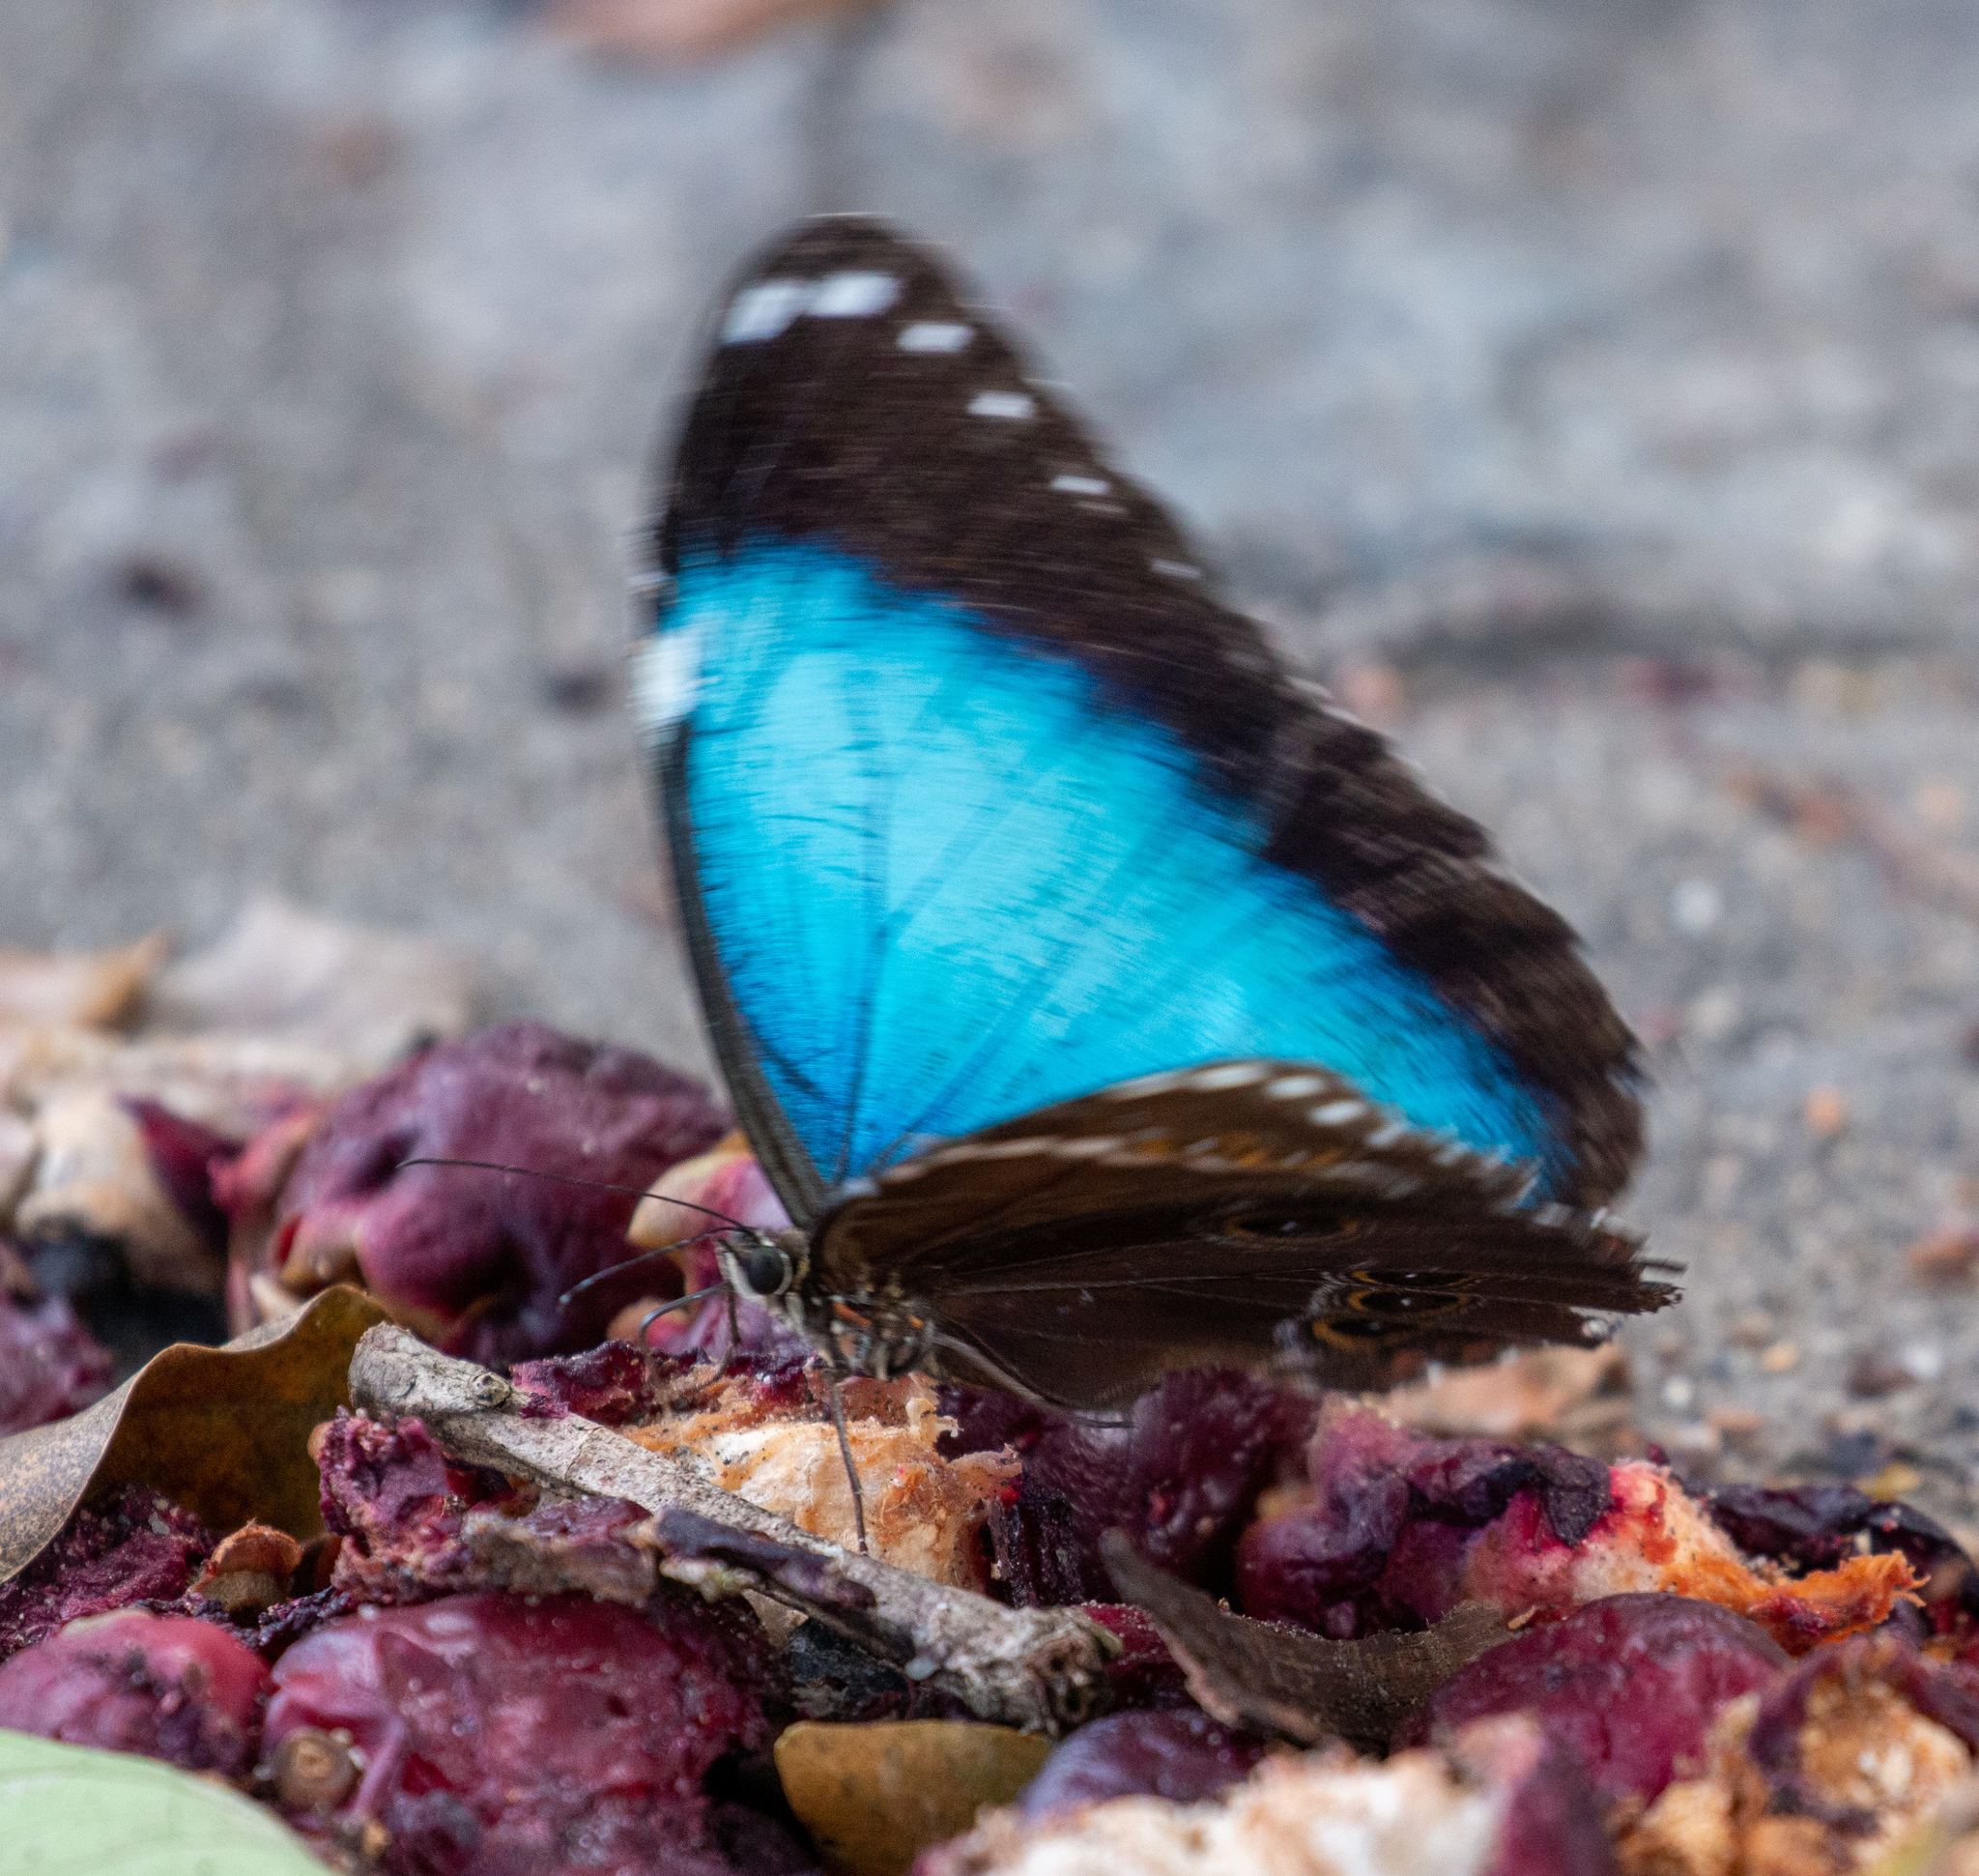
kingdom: Animalia
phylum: Arthropoda
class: Insecta
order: Lepidoptera
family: Nymphalidae
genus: Morpho
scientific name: Morpho helenor
